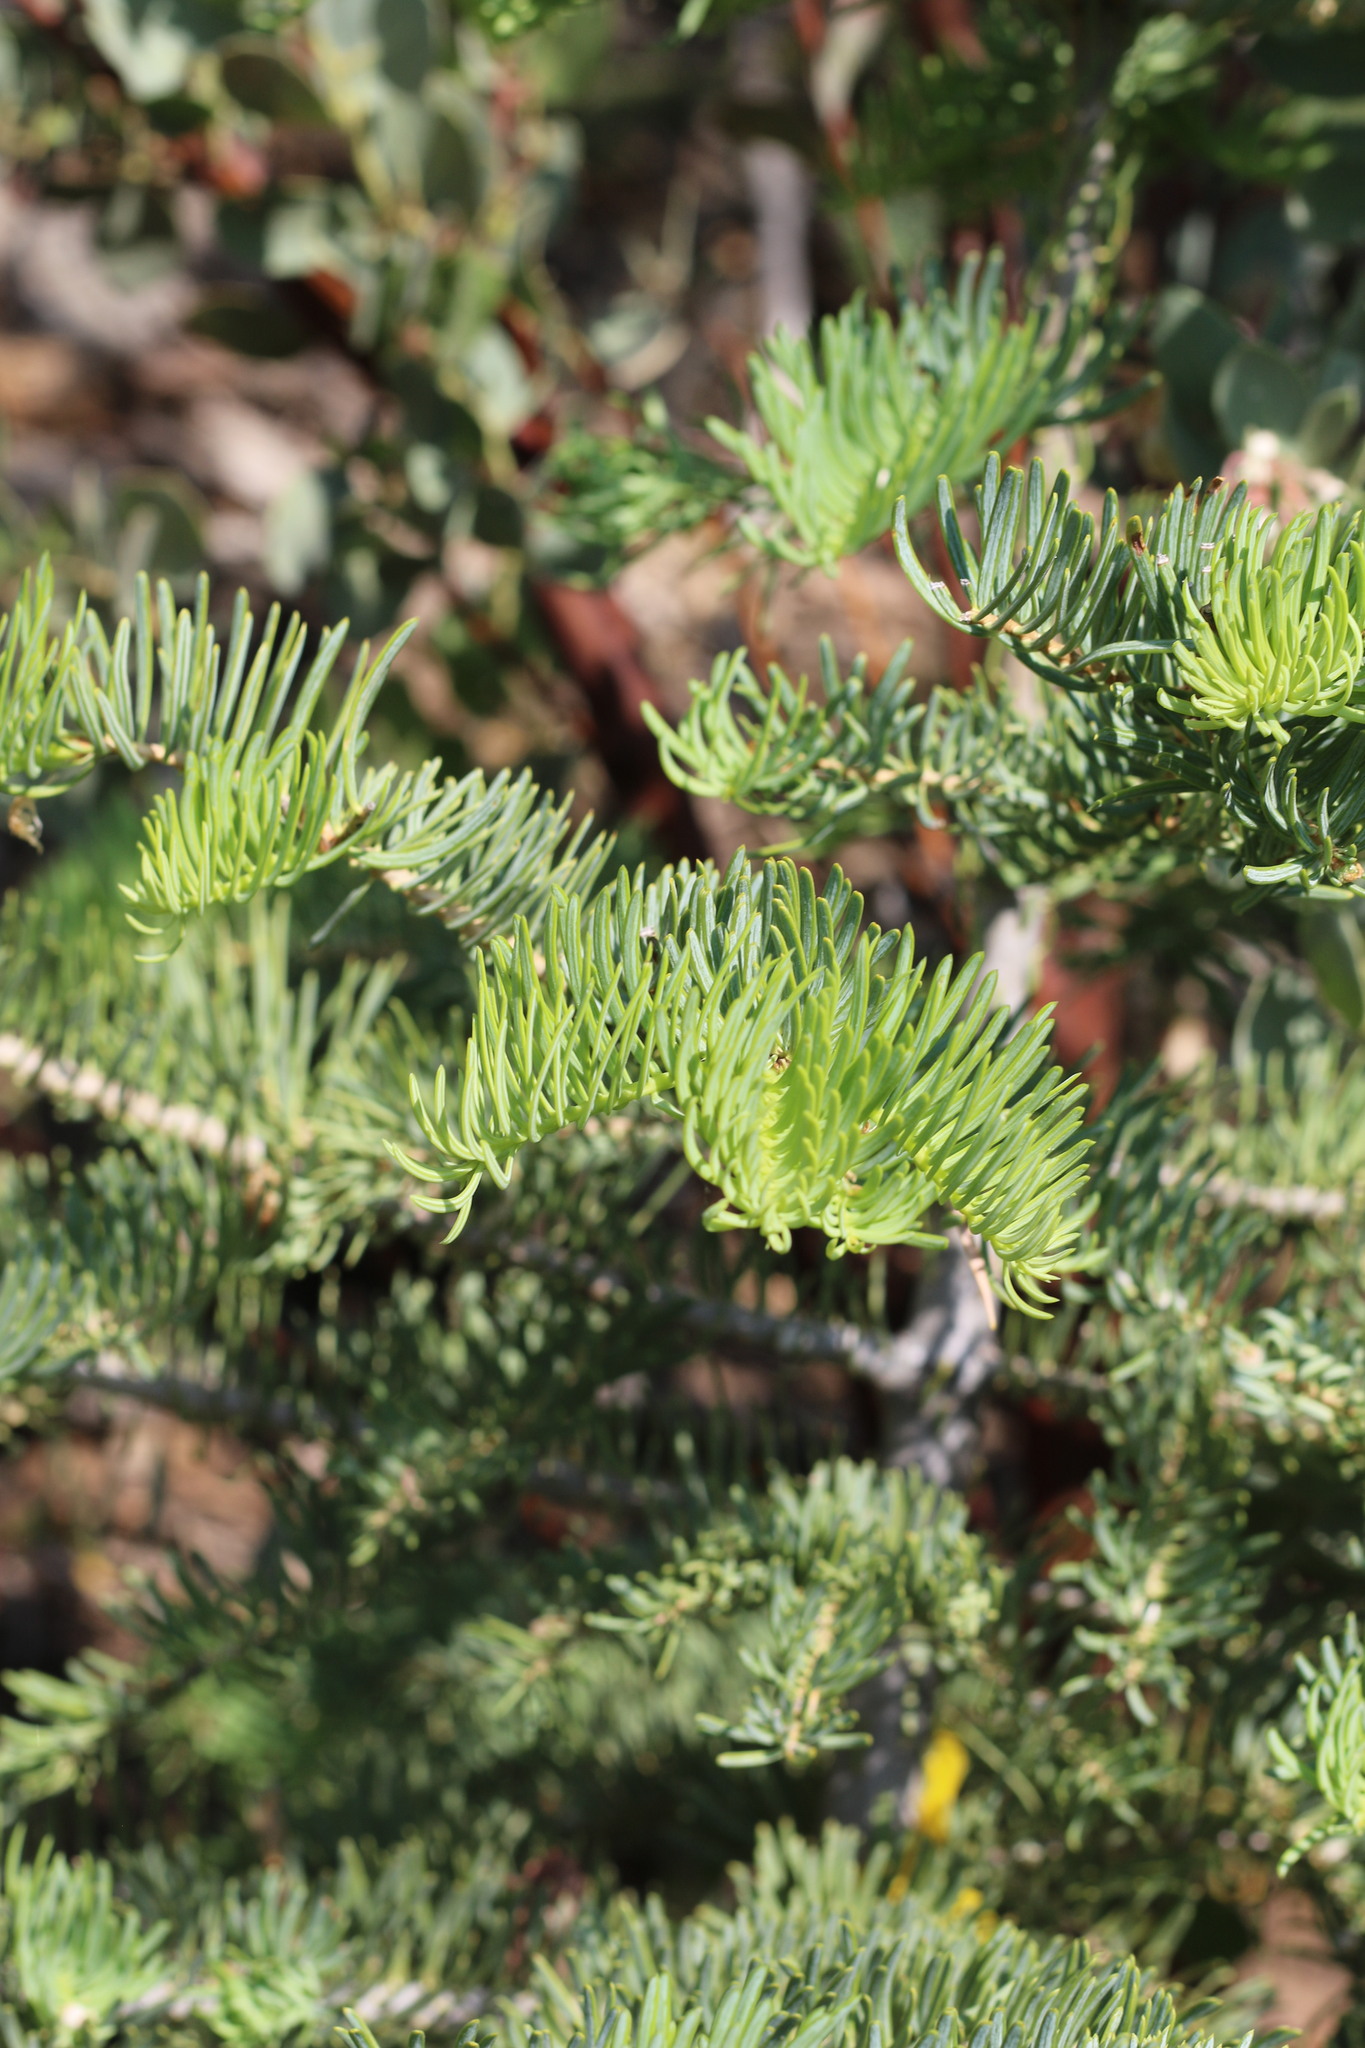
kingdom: Plantae
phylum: Tracheophyta
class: Pinopsida
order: Pinales
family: Pinaceae
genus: Abies
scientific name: Abies concolor
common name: Colorado fir
